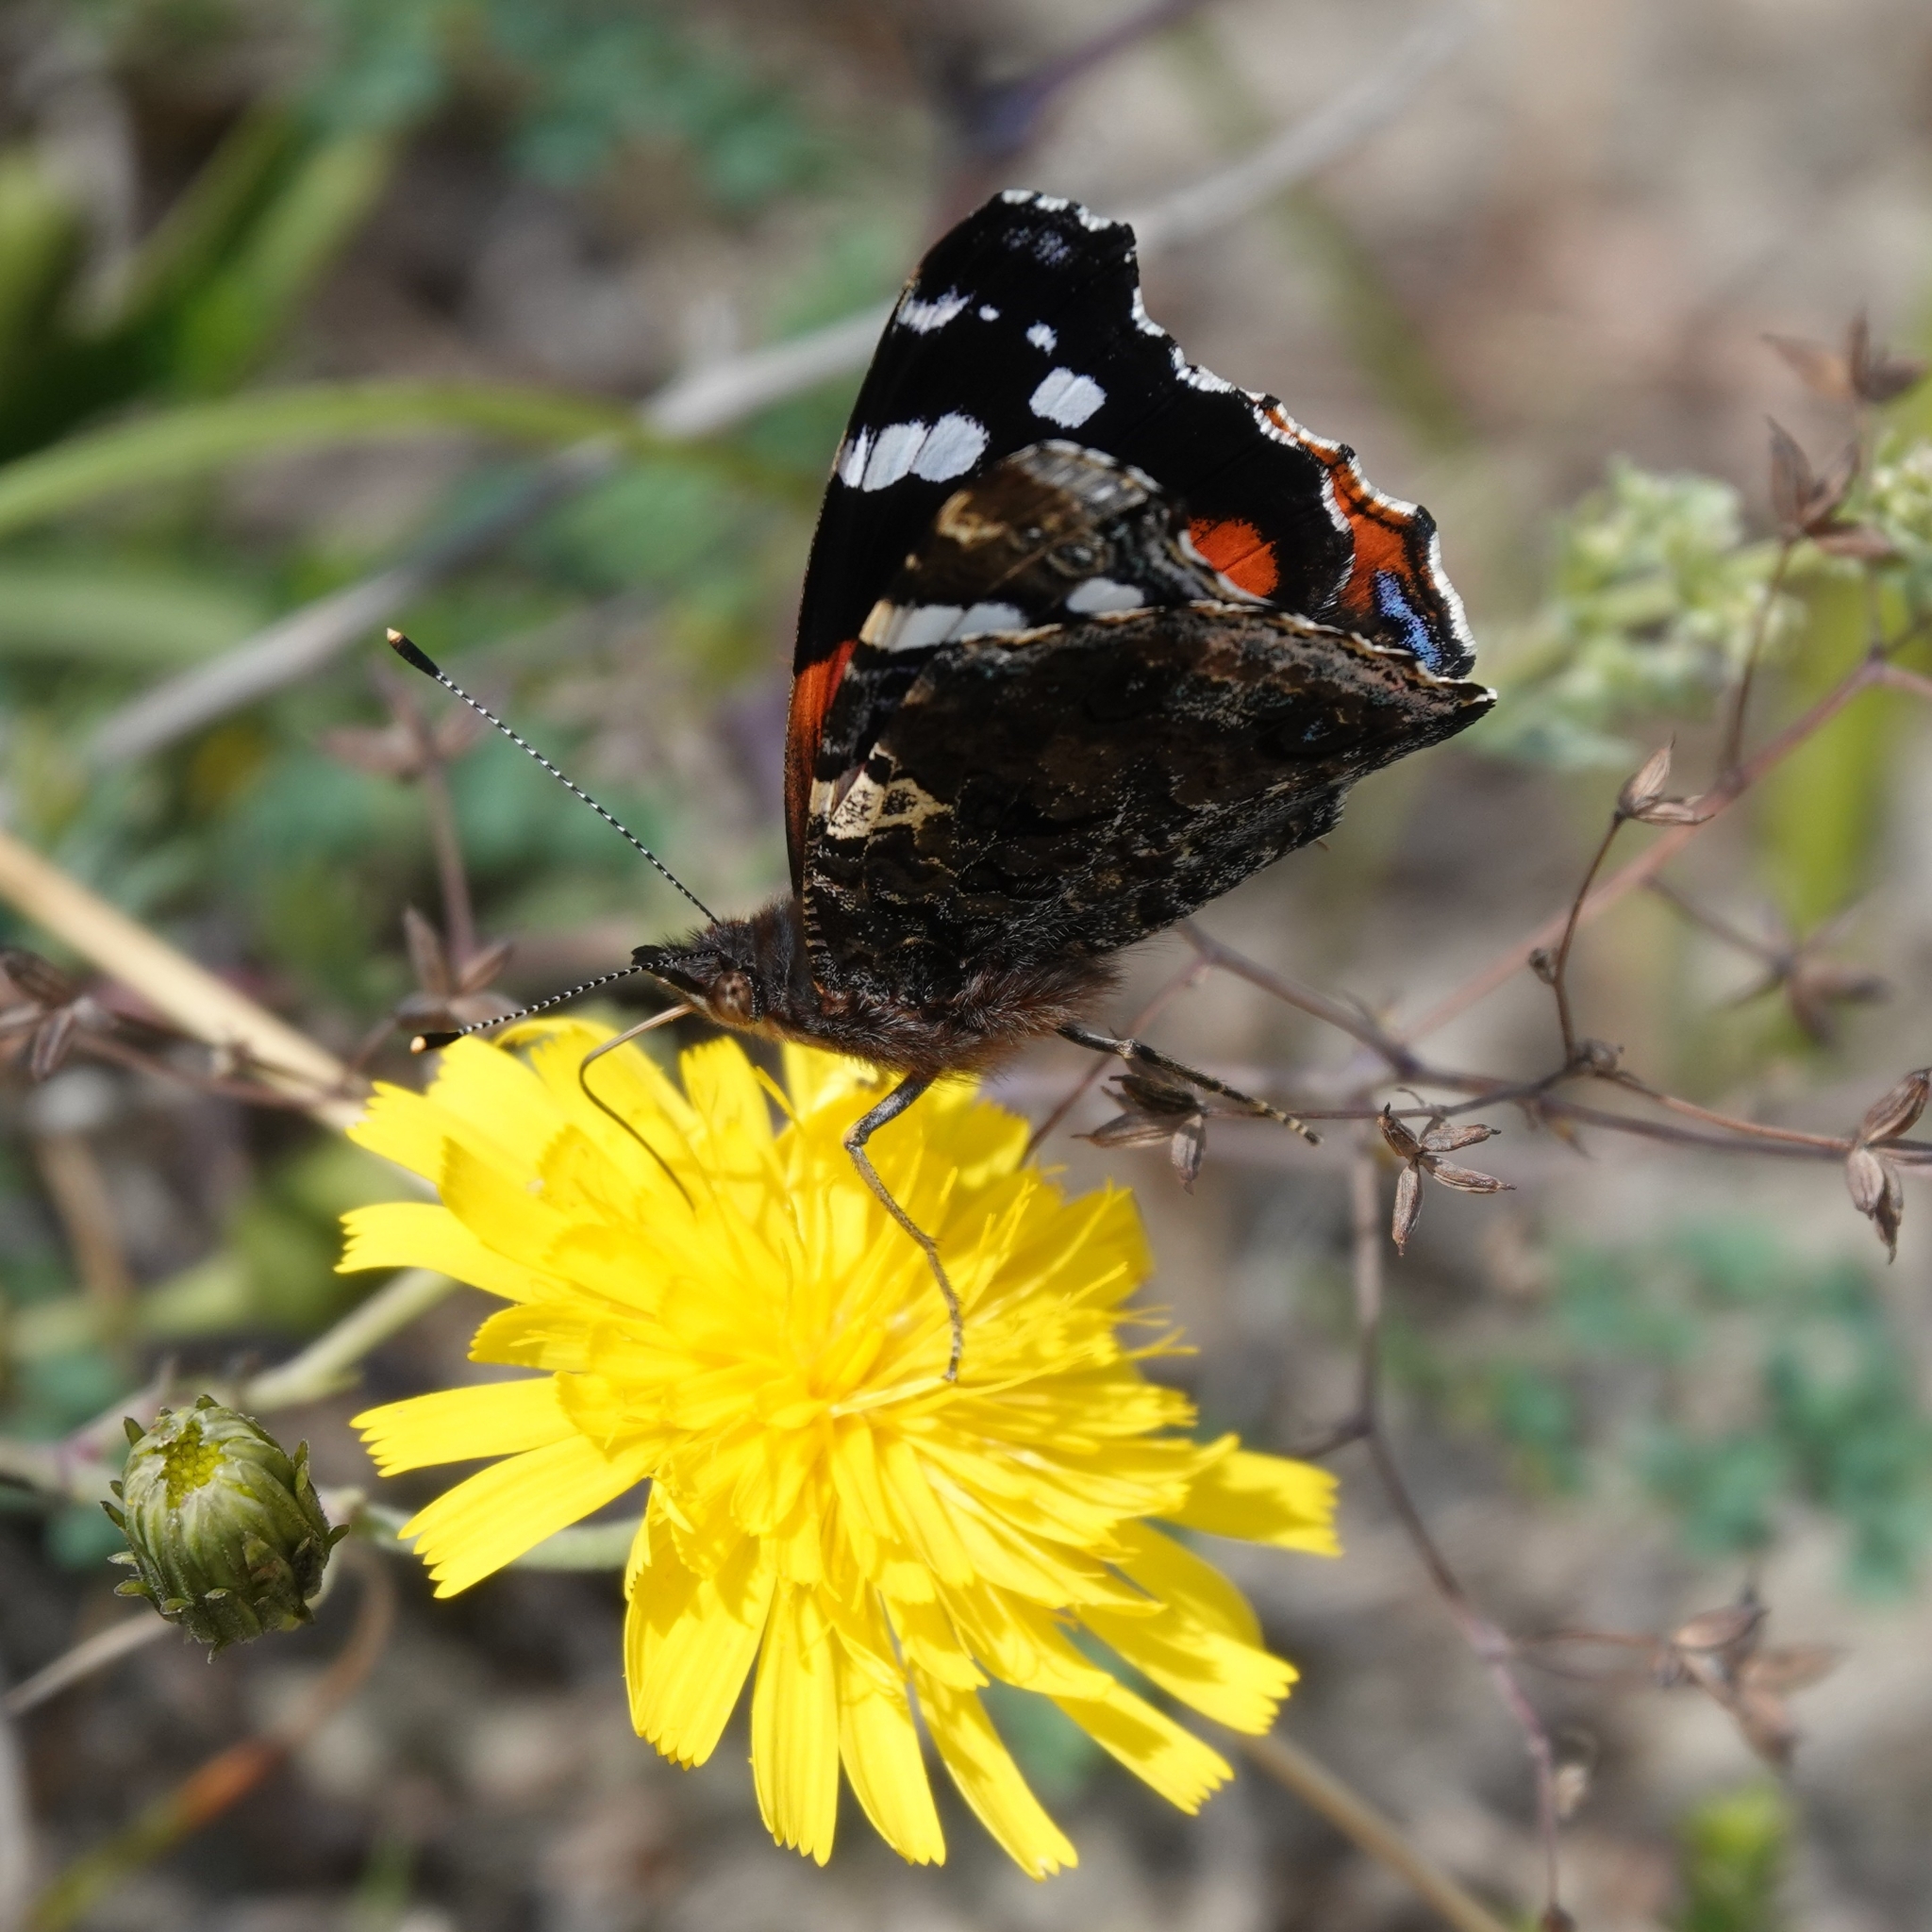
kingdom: Animalia
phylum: Arthropoda
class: Insecta
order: Lepidoptera
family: Nymphalidae
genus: Vanessa
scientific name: Vanessa atalanta
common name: Red admiral
